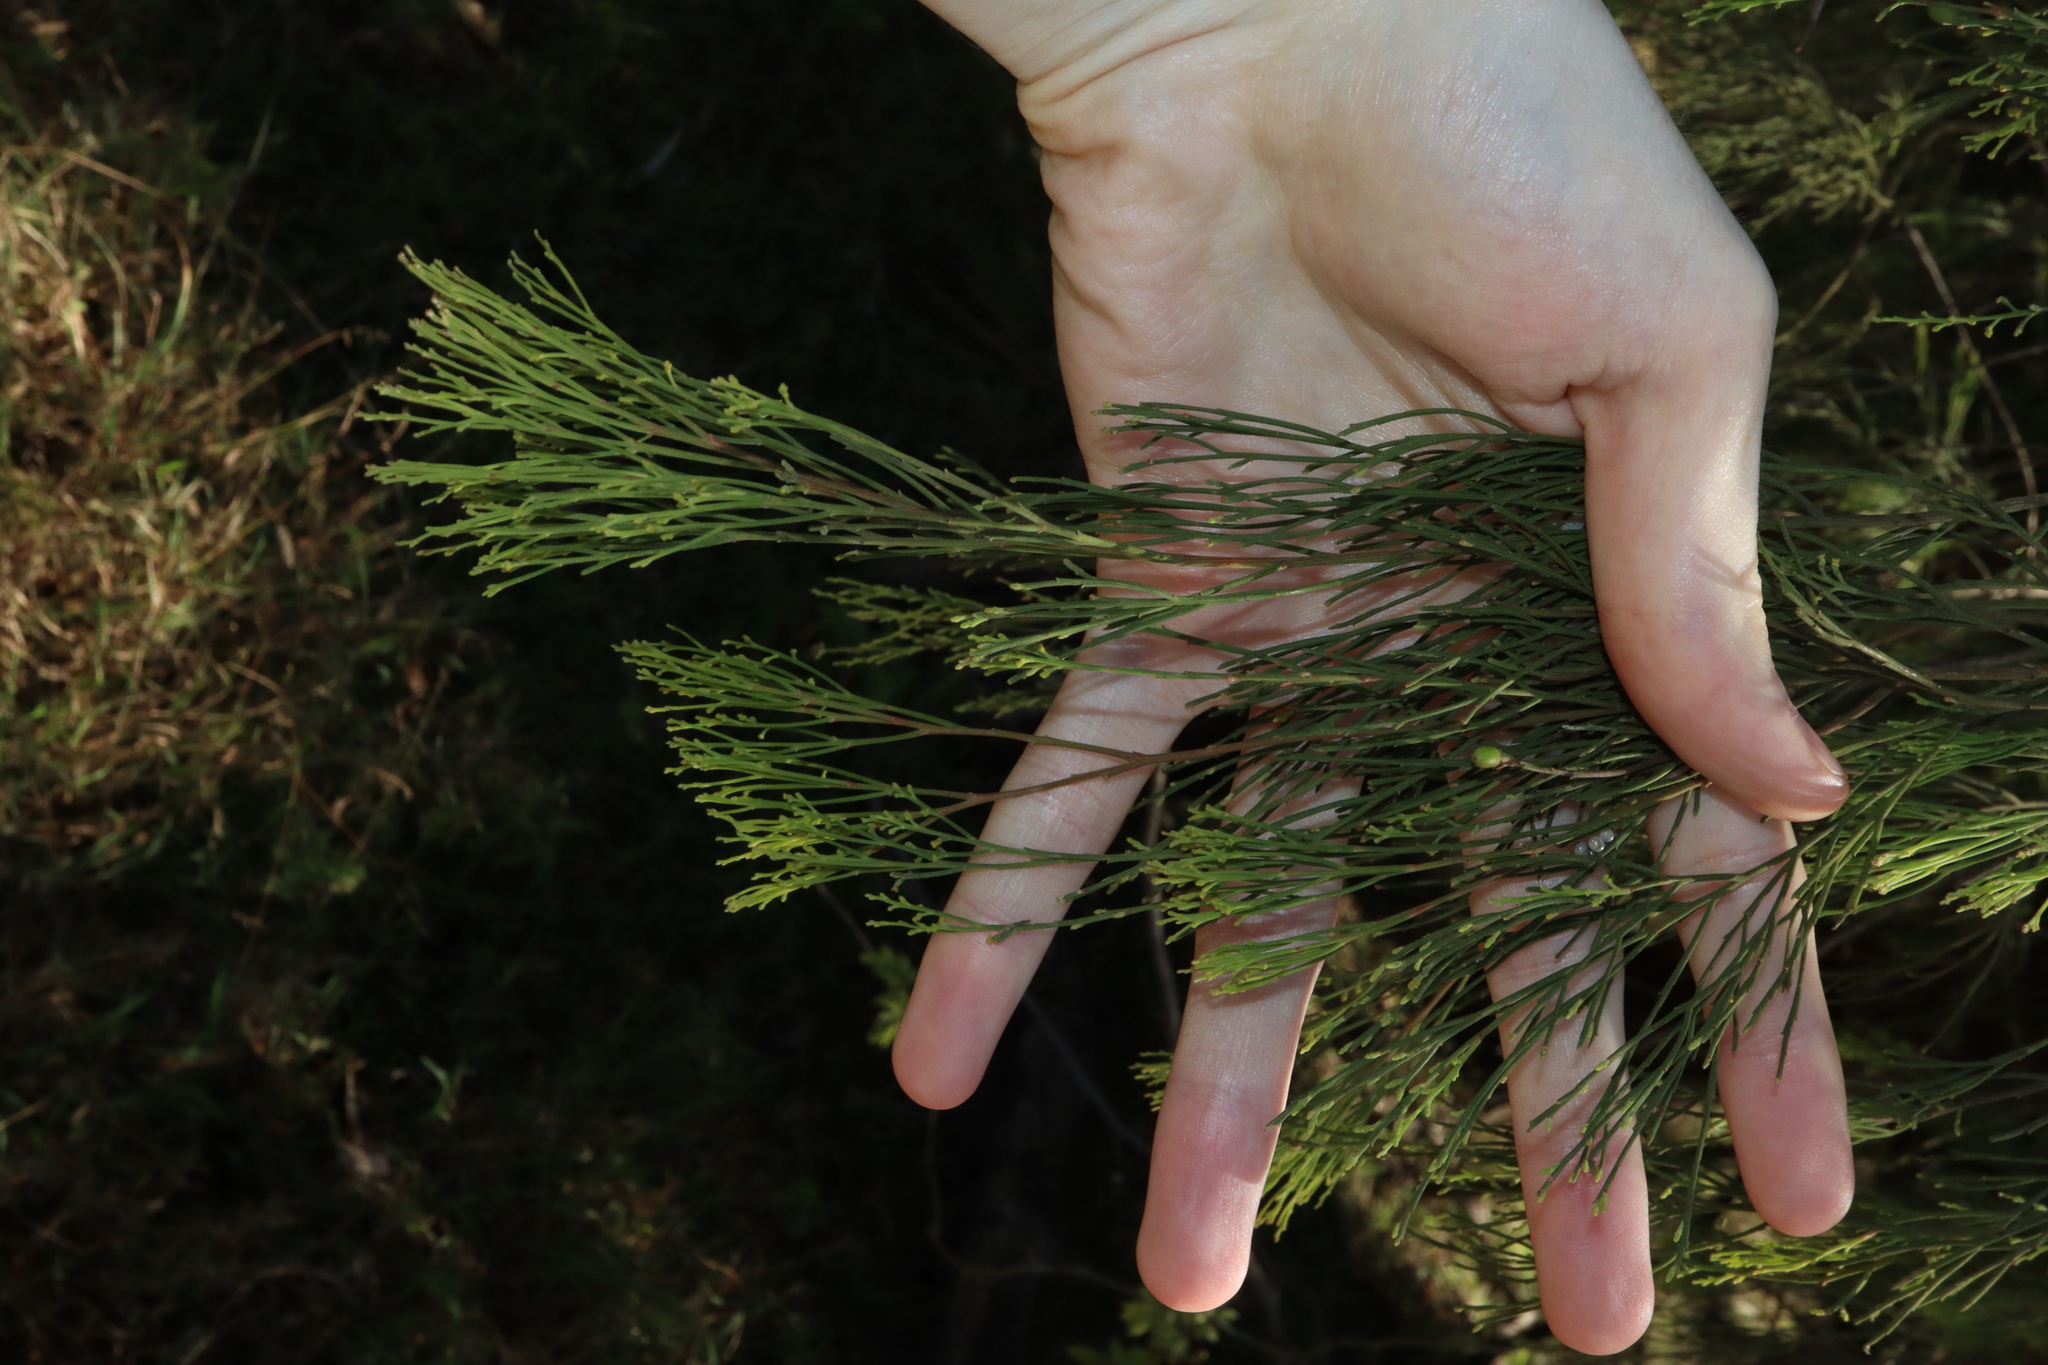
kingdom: Plantae
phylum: Tracheophyta
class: Magnoliopsida
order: Santalales
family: Santalaceae
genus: Exocarpos
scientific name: Exocarpos cupressiformis
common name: Cherry ballart
